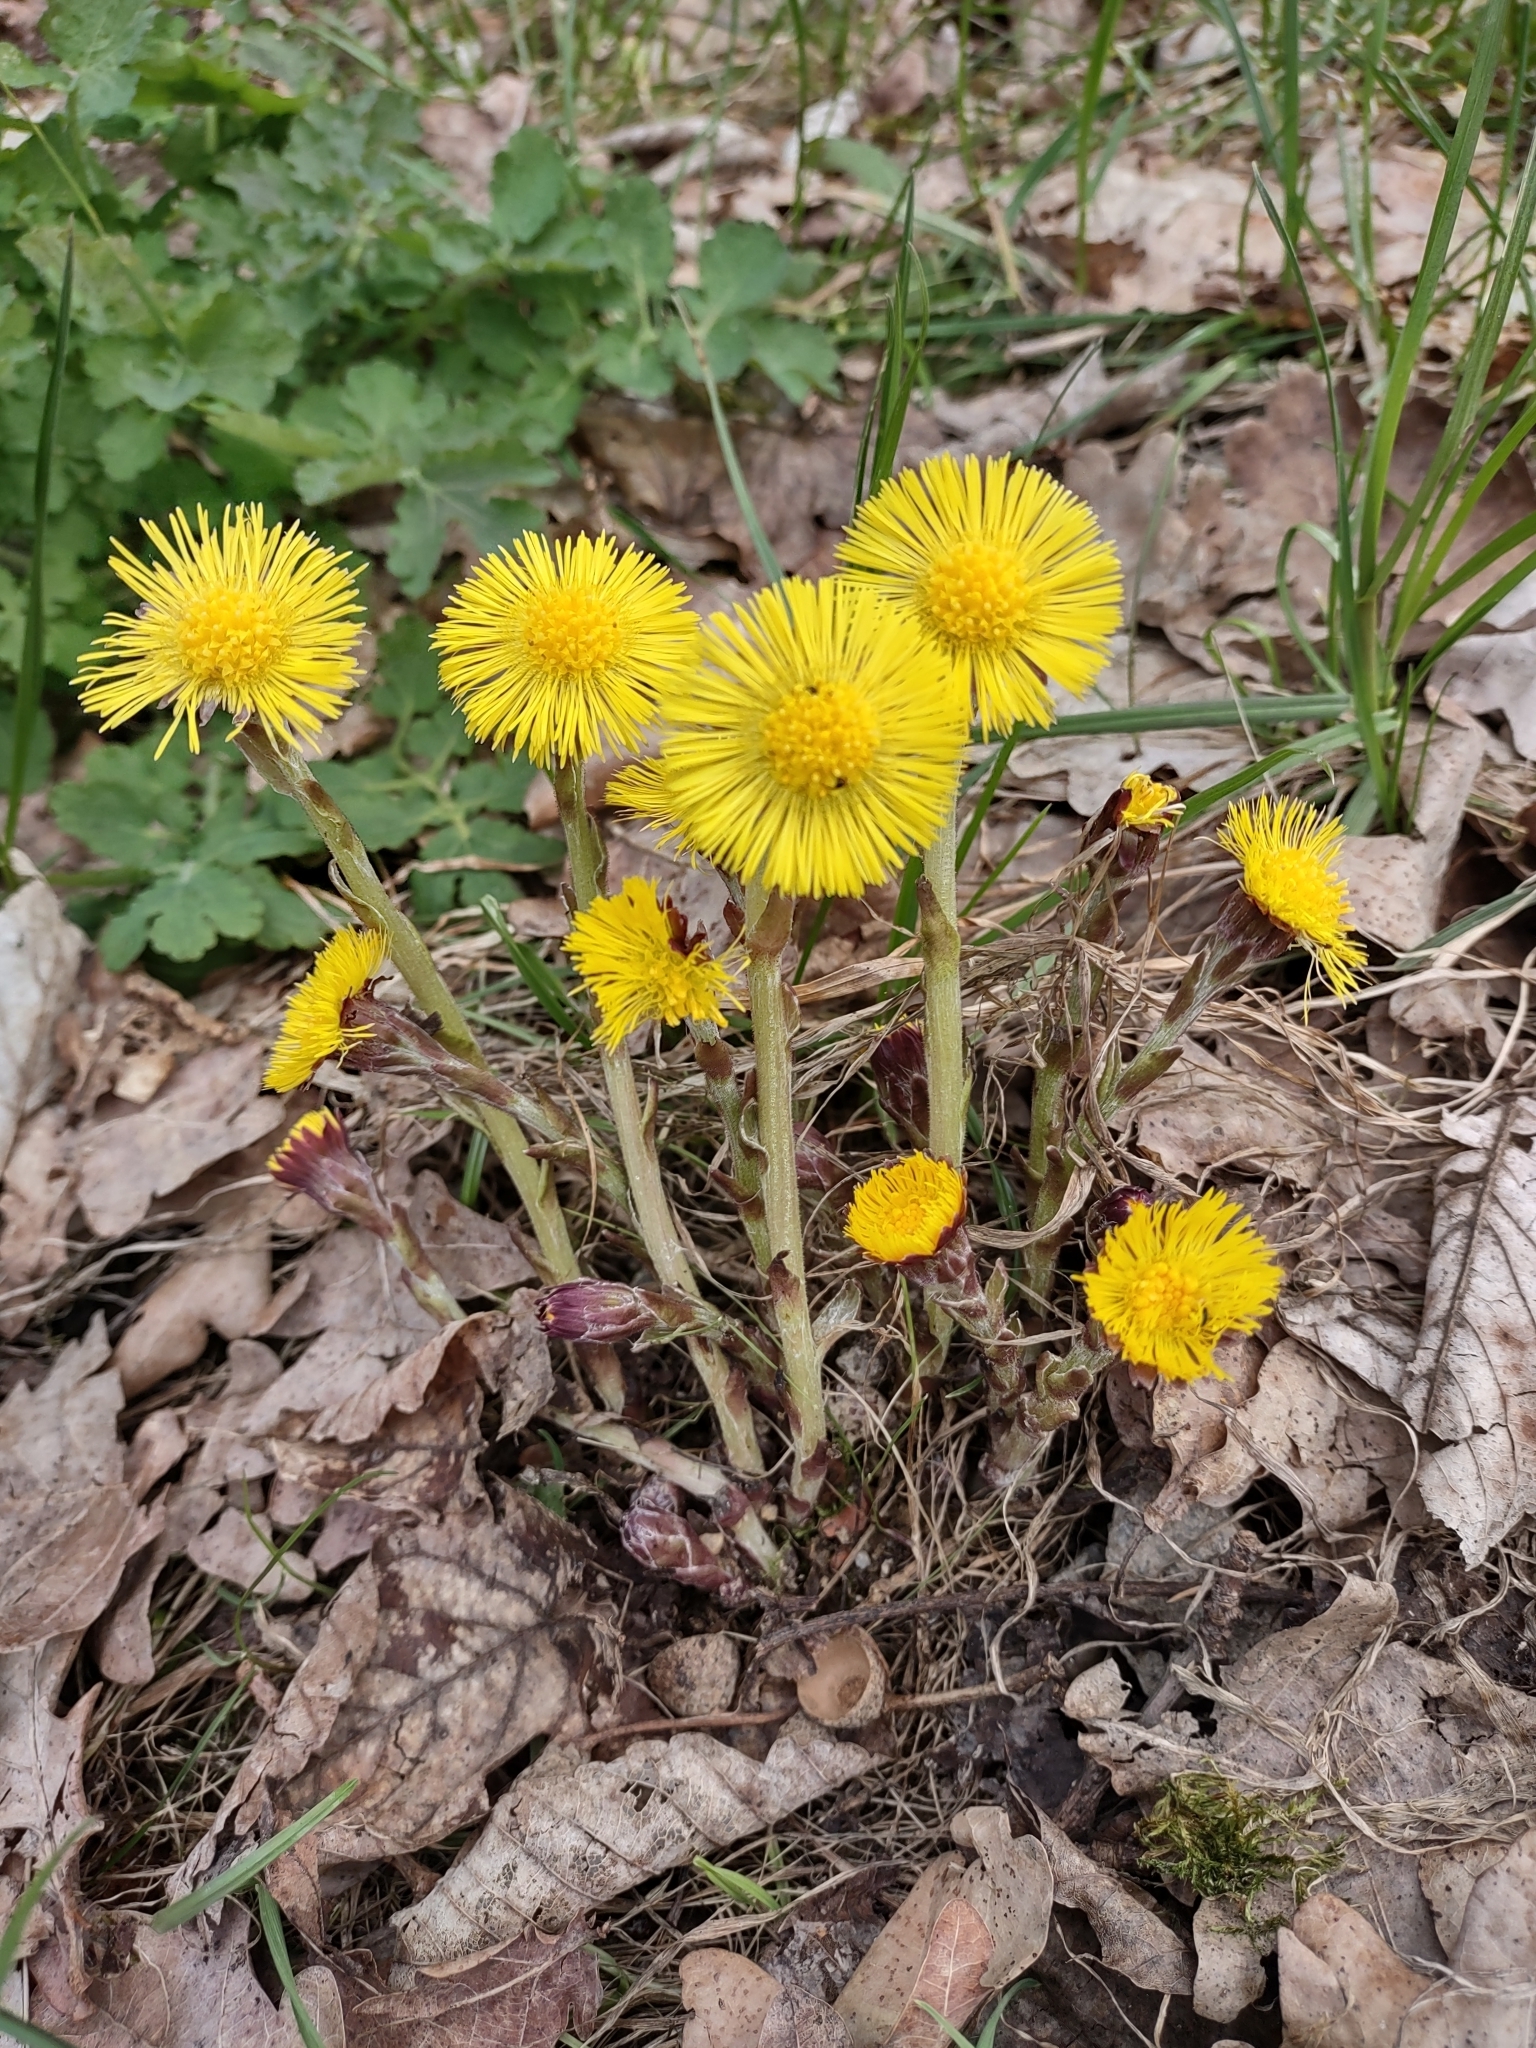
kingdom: Plantae
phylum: Tracheophyta
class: Magnoliopsida
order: Asterales
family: Asteraceae
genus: Tussilago
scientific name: Tussilago farfara
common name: Coltsfoot
